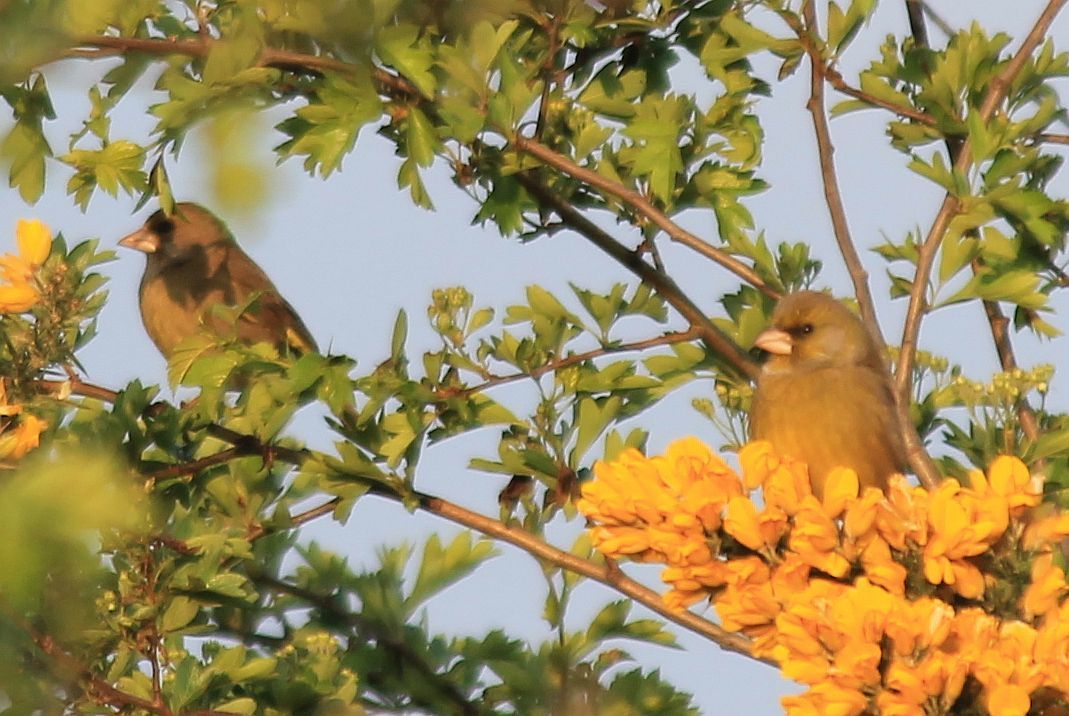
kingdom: Plantae
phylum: Tracheophyta
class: Liliopsida
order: Poales
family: Poaceae
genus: Chloris
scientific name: Chloris chloris
